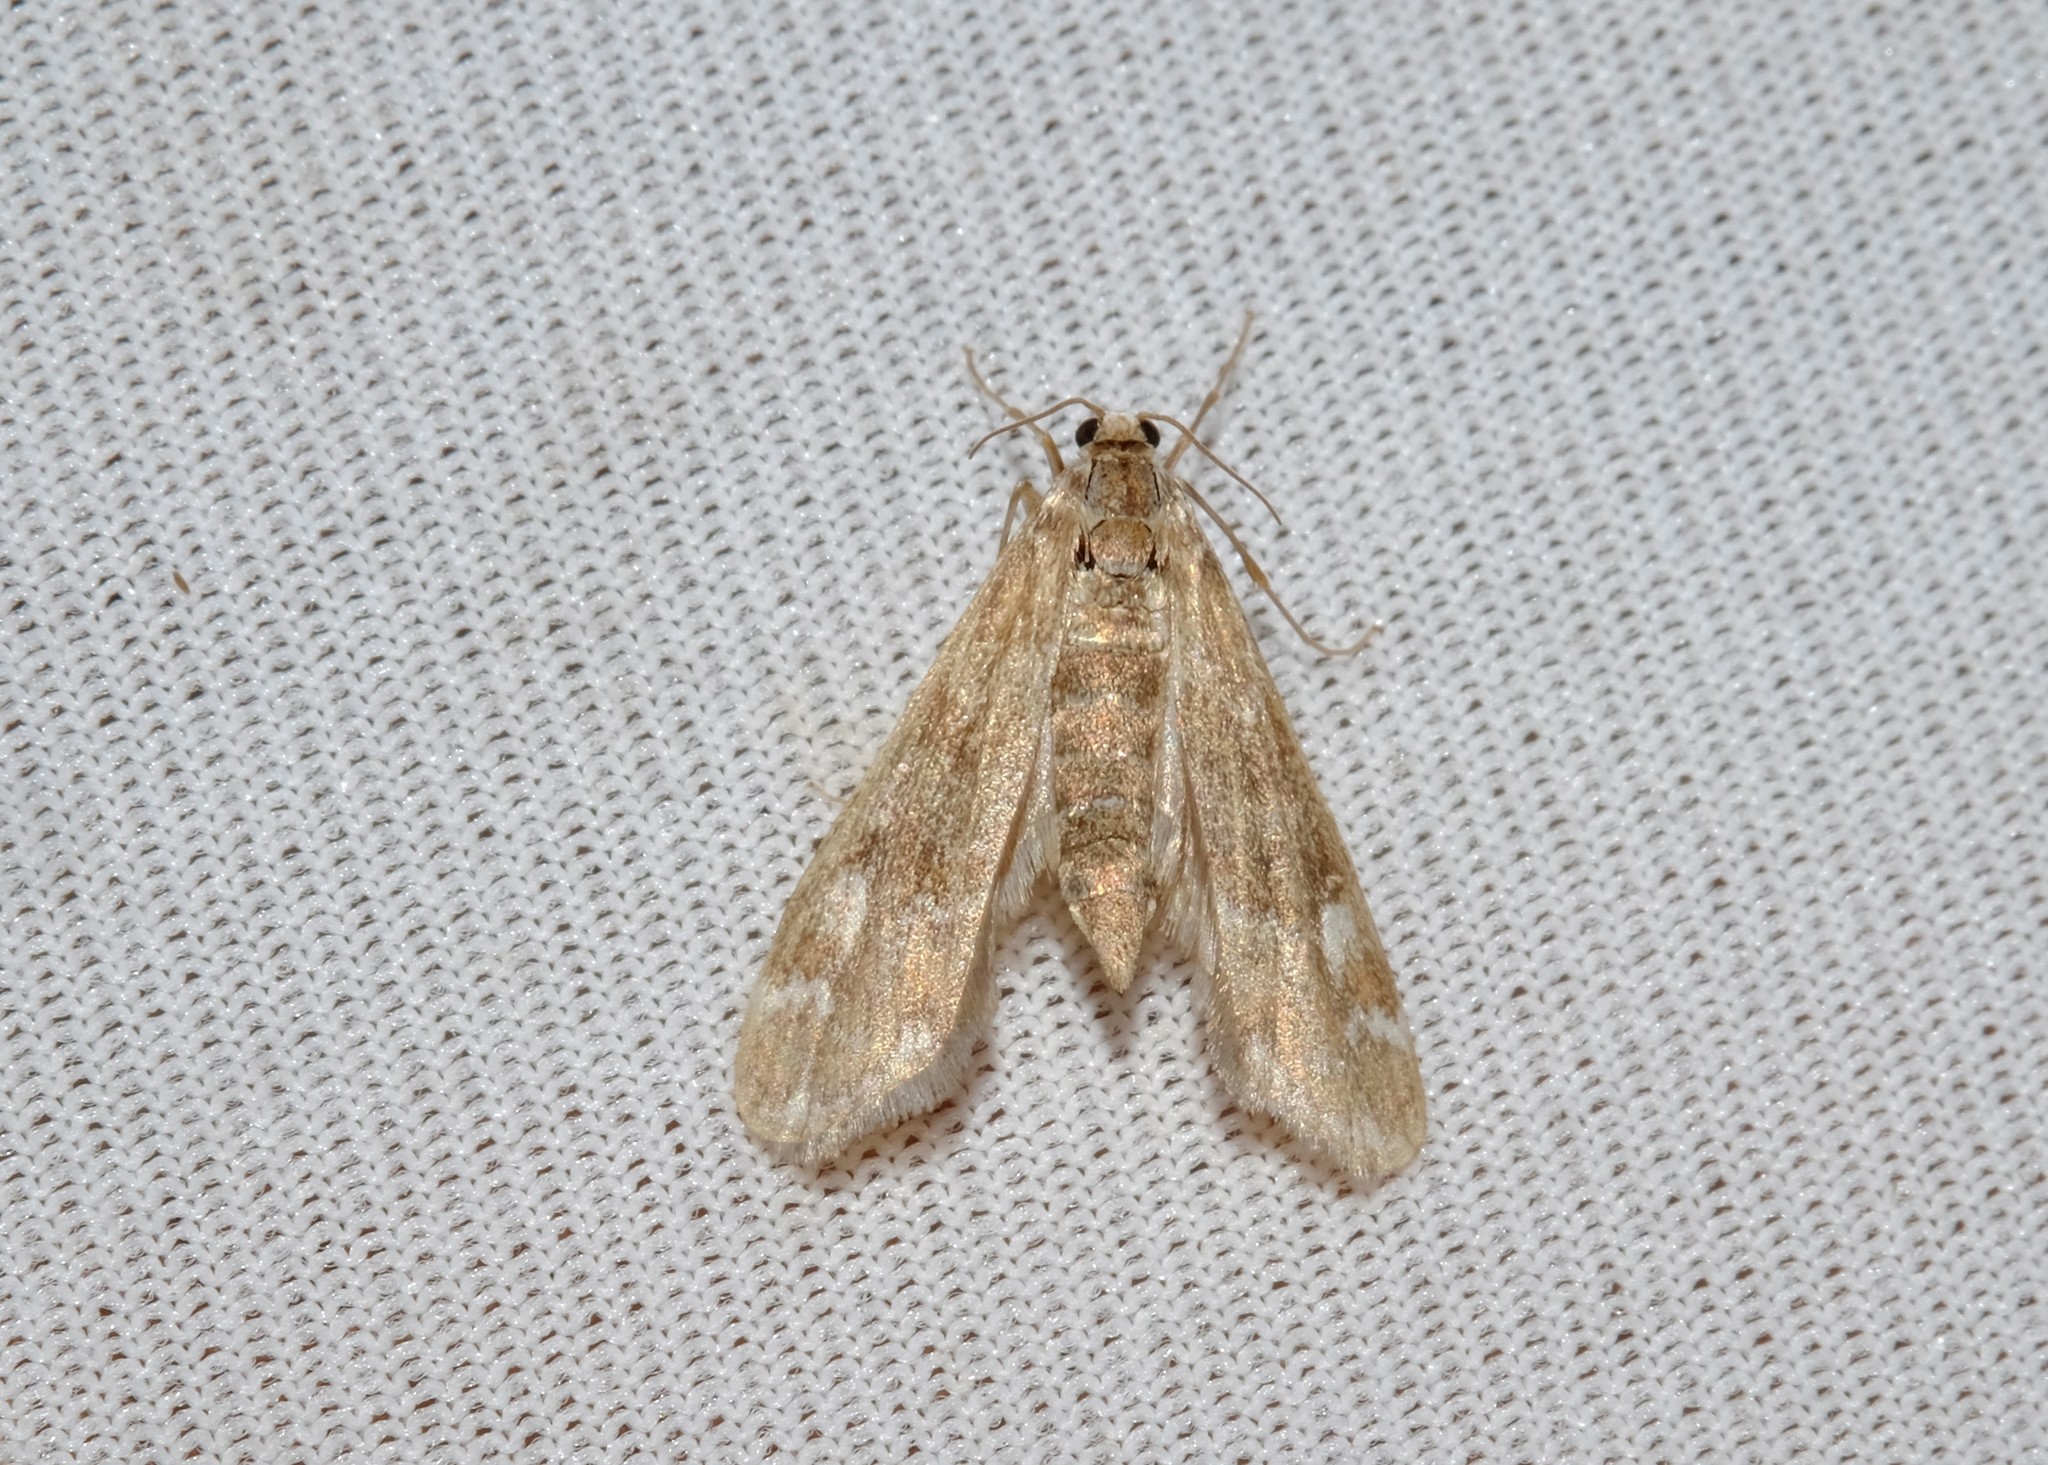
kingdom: Animalia
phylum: Arthropoda
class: Insecta
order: Lepidoptera
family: Crambidae
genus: Hygraula
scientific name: Hygraula nitens
